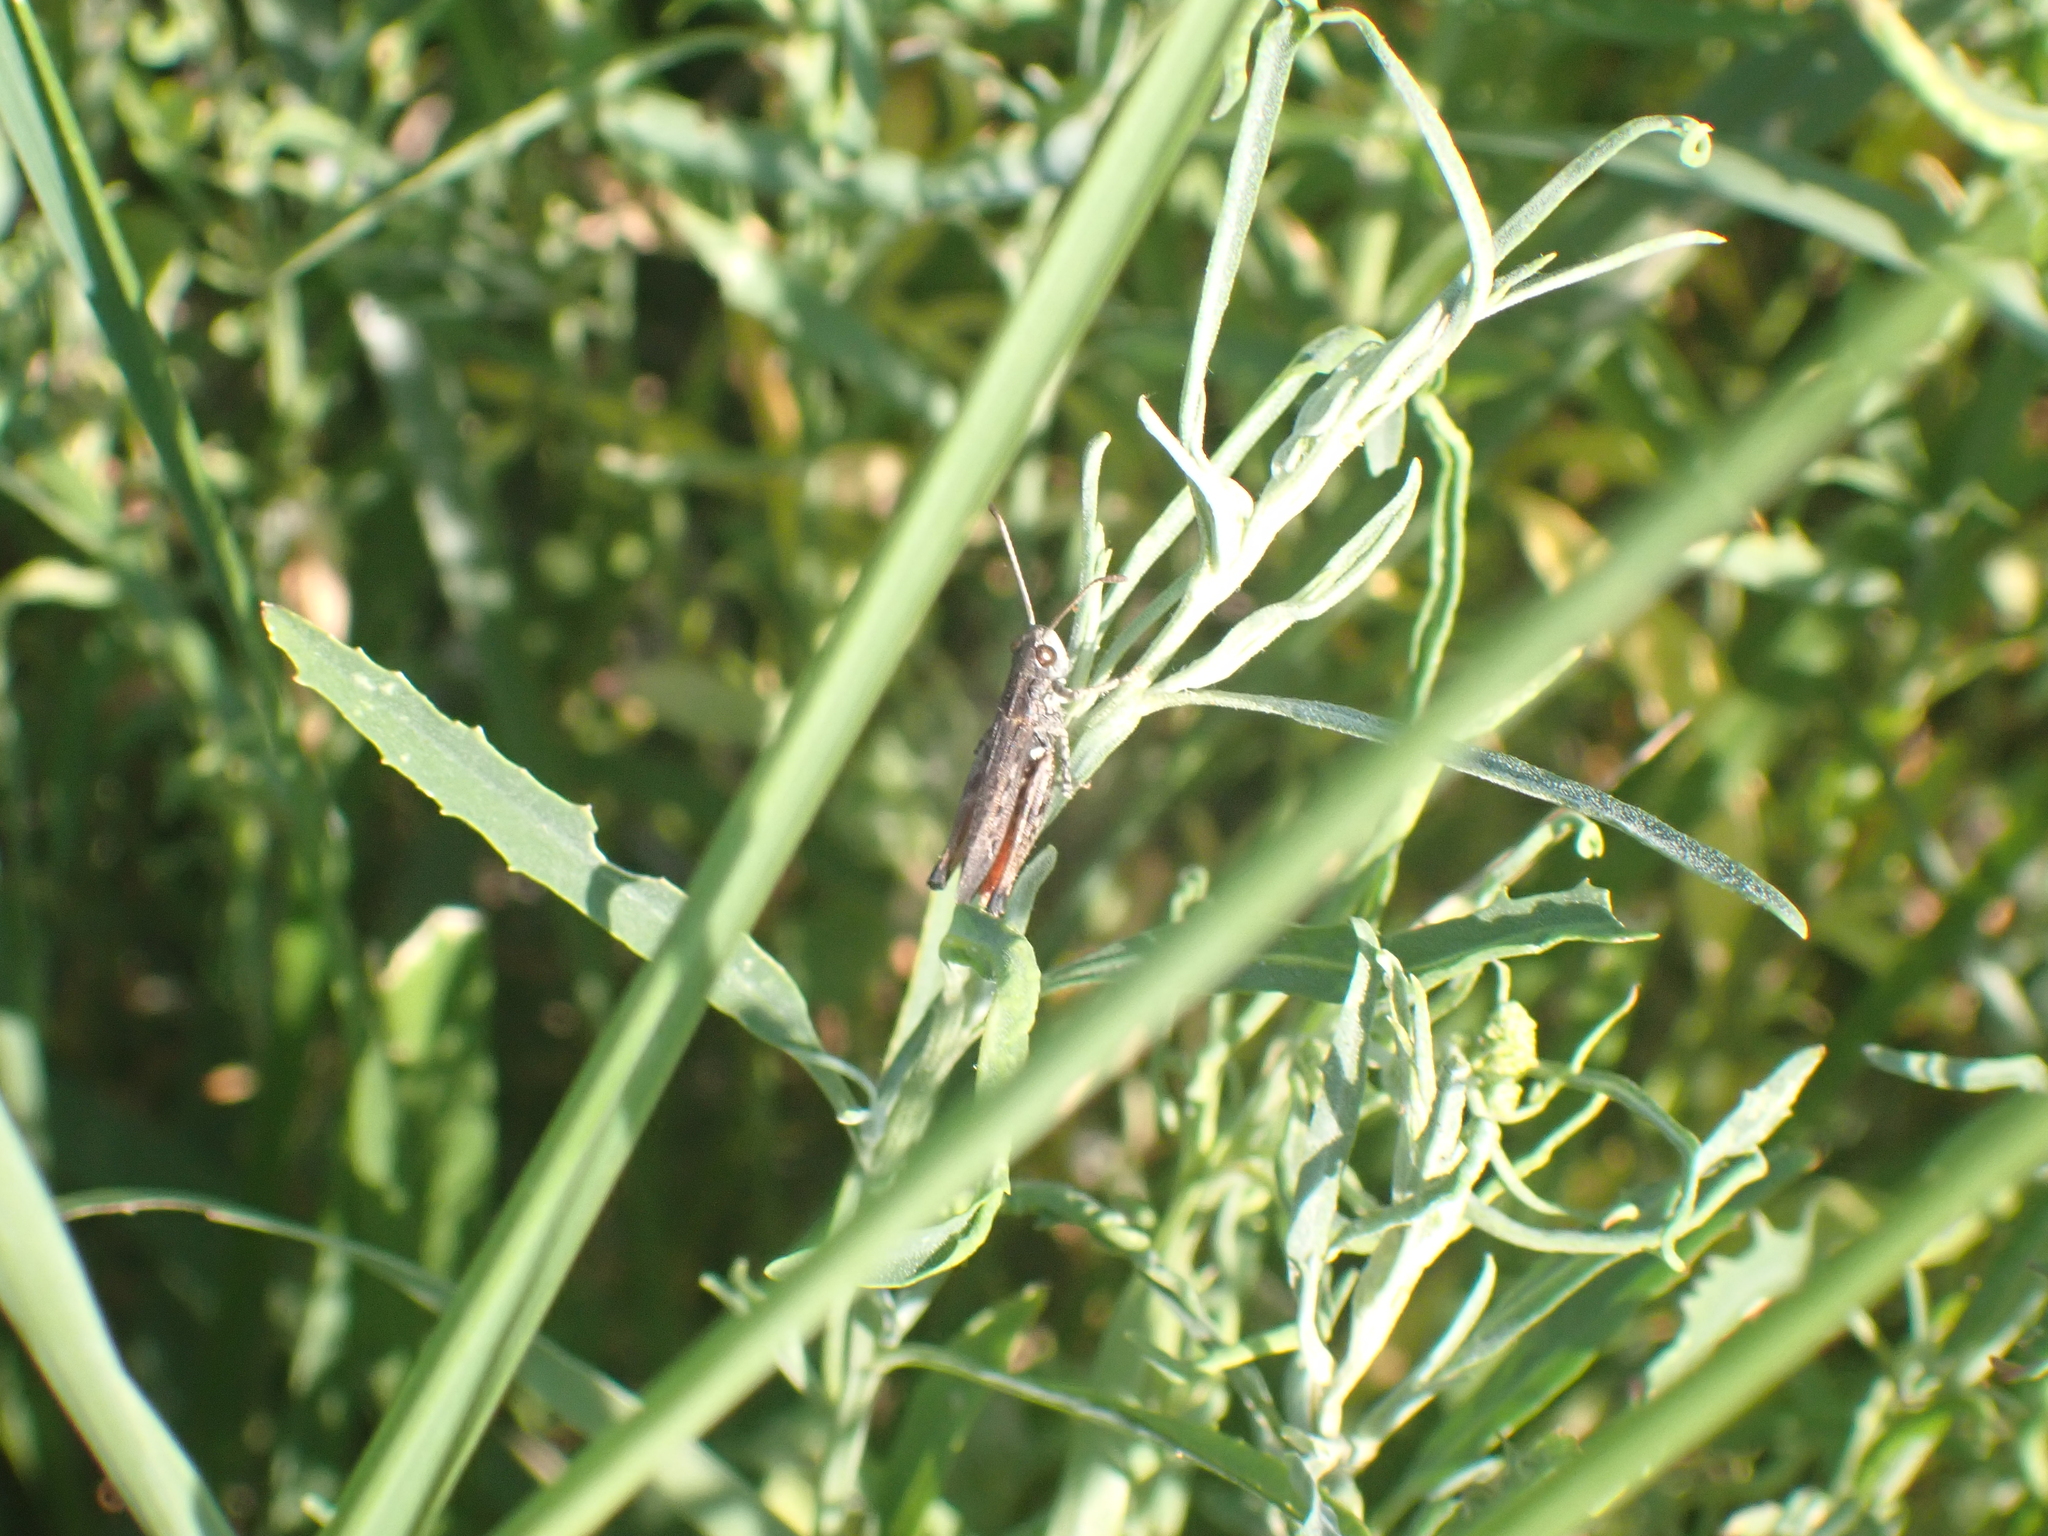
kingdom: Animalia
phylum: Arthropoda
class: Insecta
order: Orthoptera
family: Acrididae
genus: Myrmeleotettix
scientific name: Myrmeleotettix maculatus
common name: Mottled grasshopper
